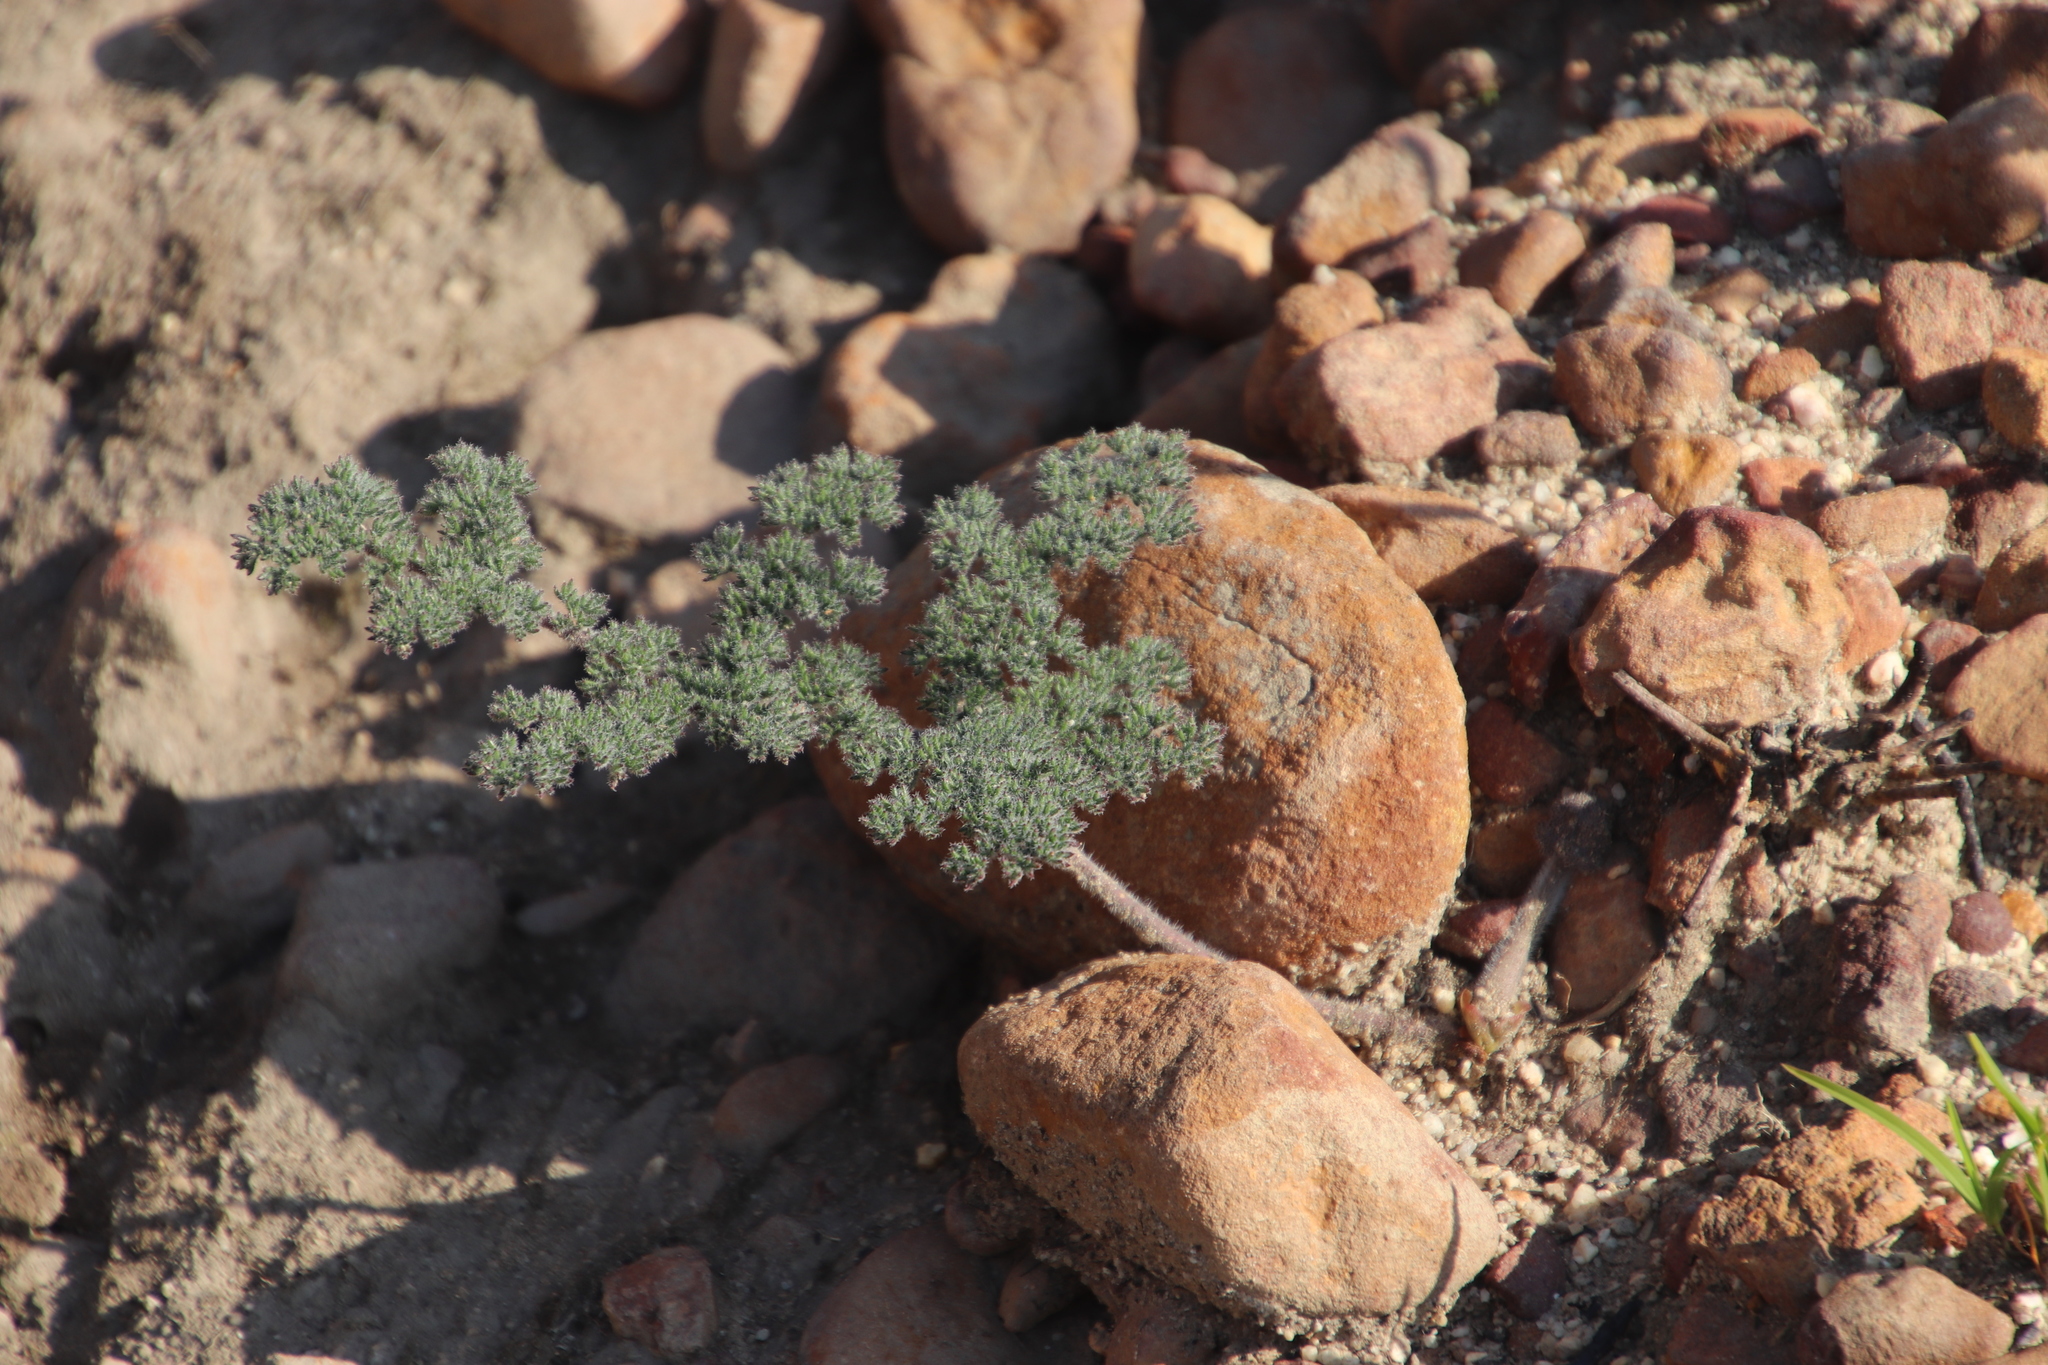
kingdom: Plantae
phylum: Tracheophyta
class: Magnoliopsida
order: Geraniales
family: Geraniaceae
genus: Pelargonium
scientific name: Pelargonium triste
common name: Night-scent pelargonium
